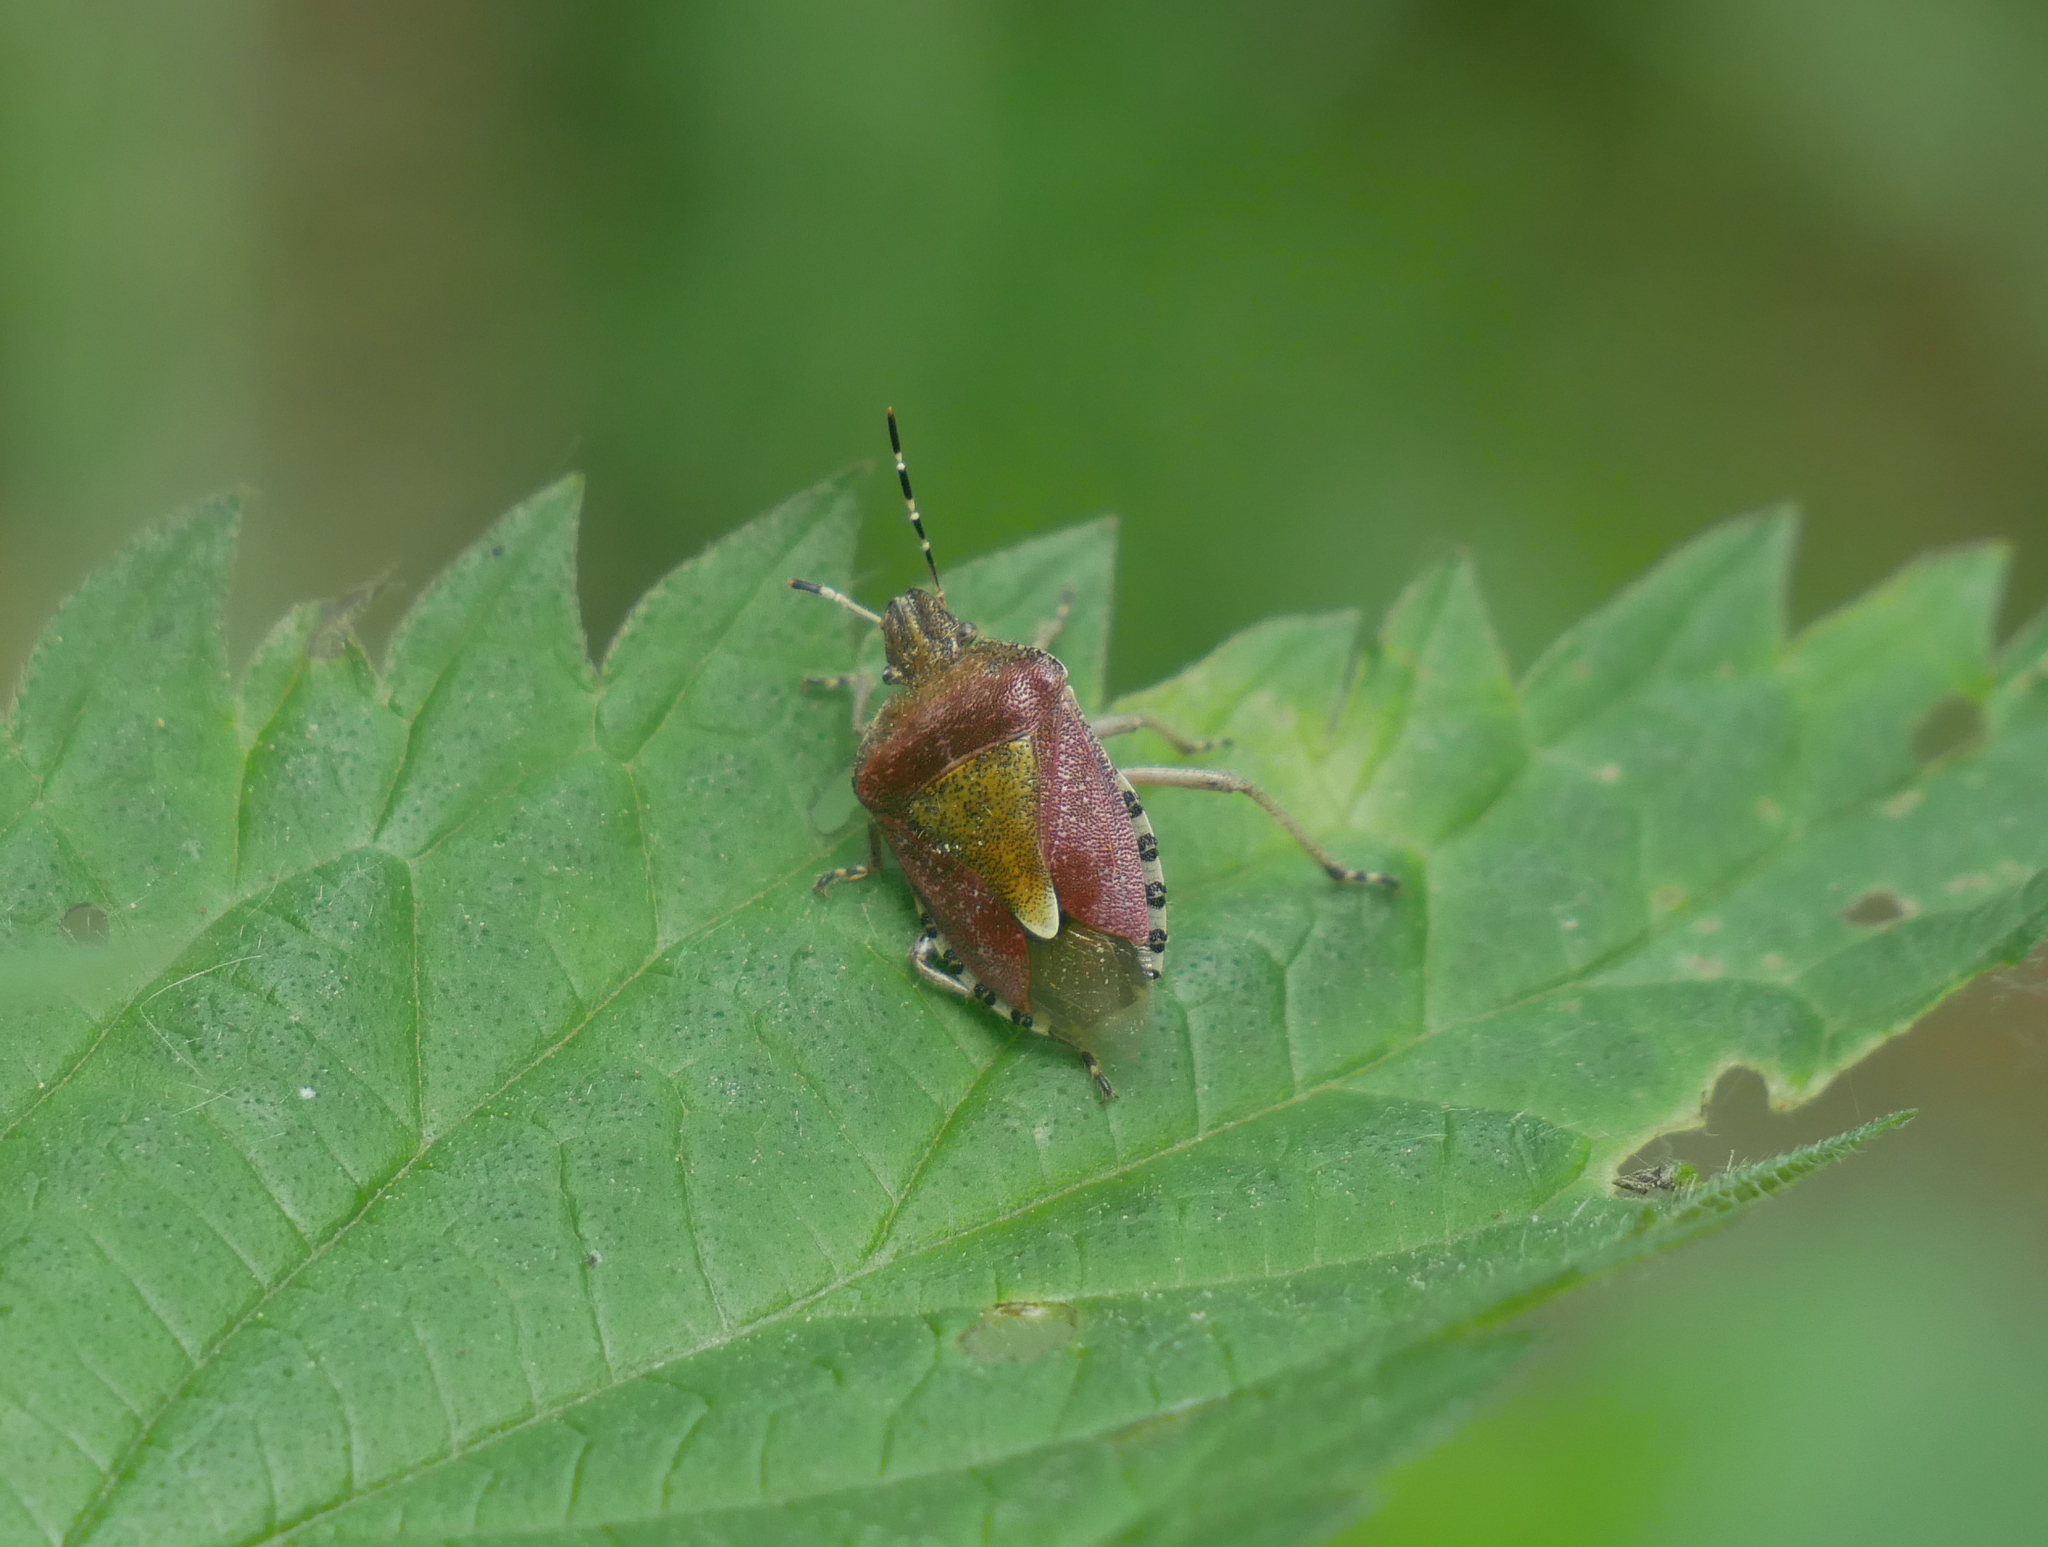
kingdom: Animalia
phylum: Arthropoda
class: Insecta
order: Hemiptera
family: Pentatomidae
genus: Dolycoris
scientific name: Dolycoris baccarum
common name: Sloe bug
